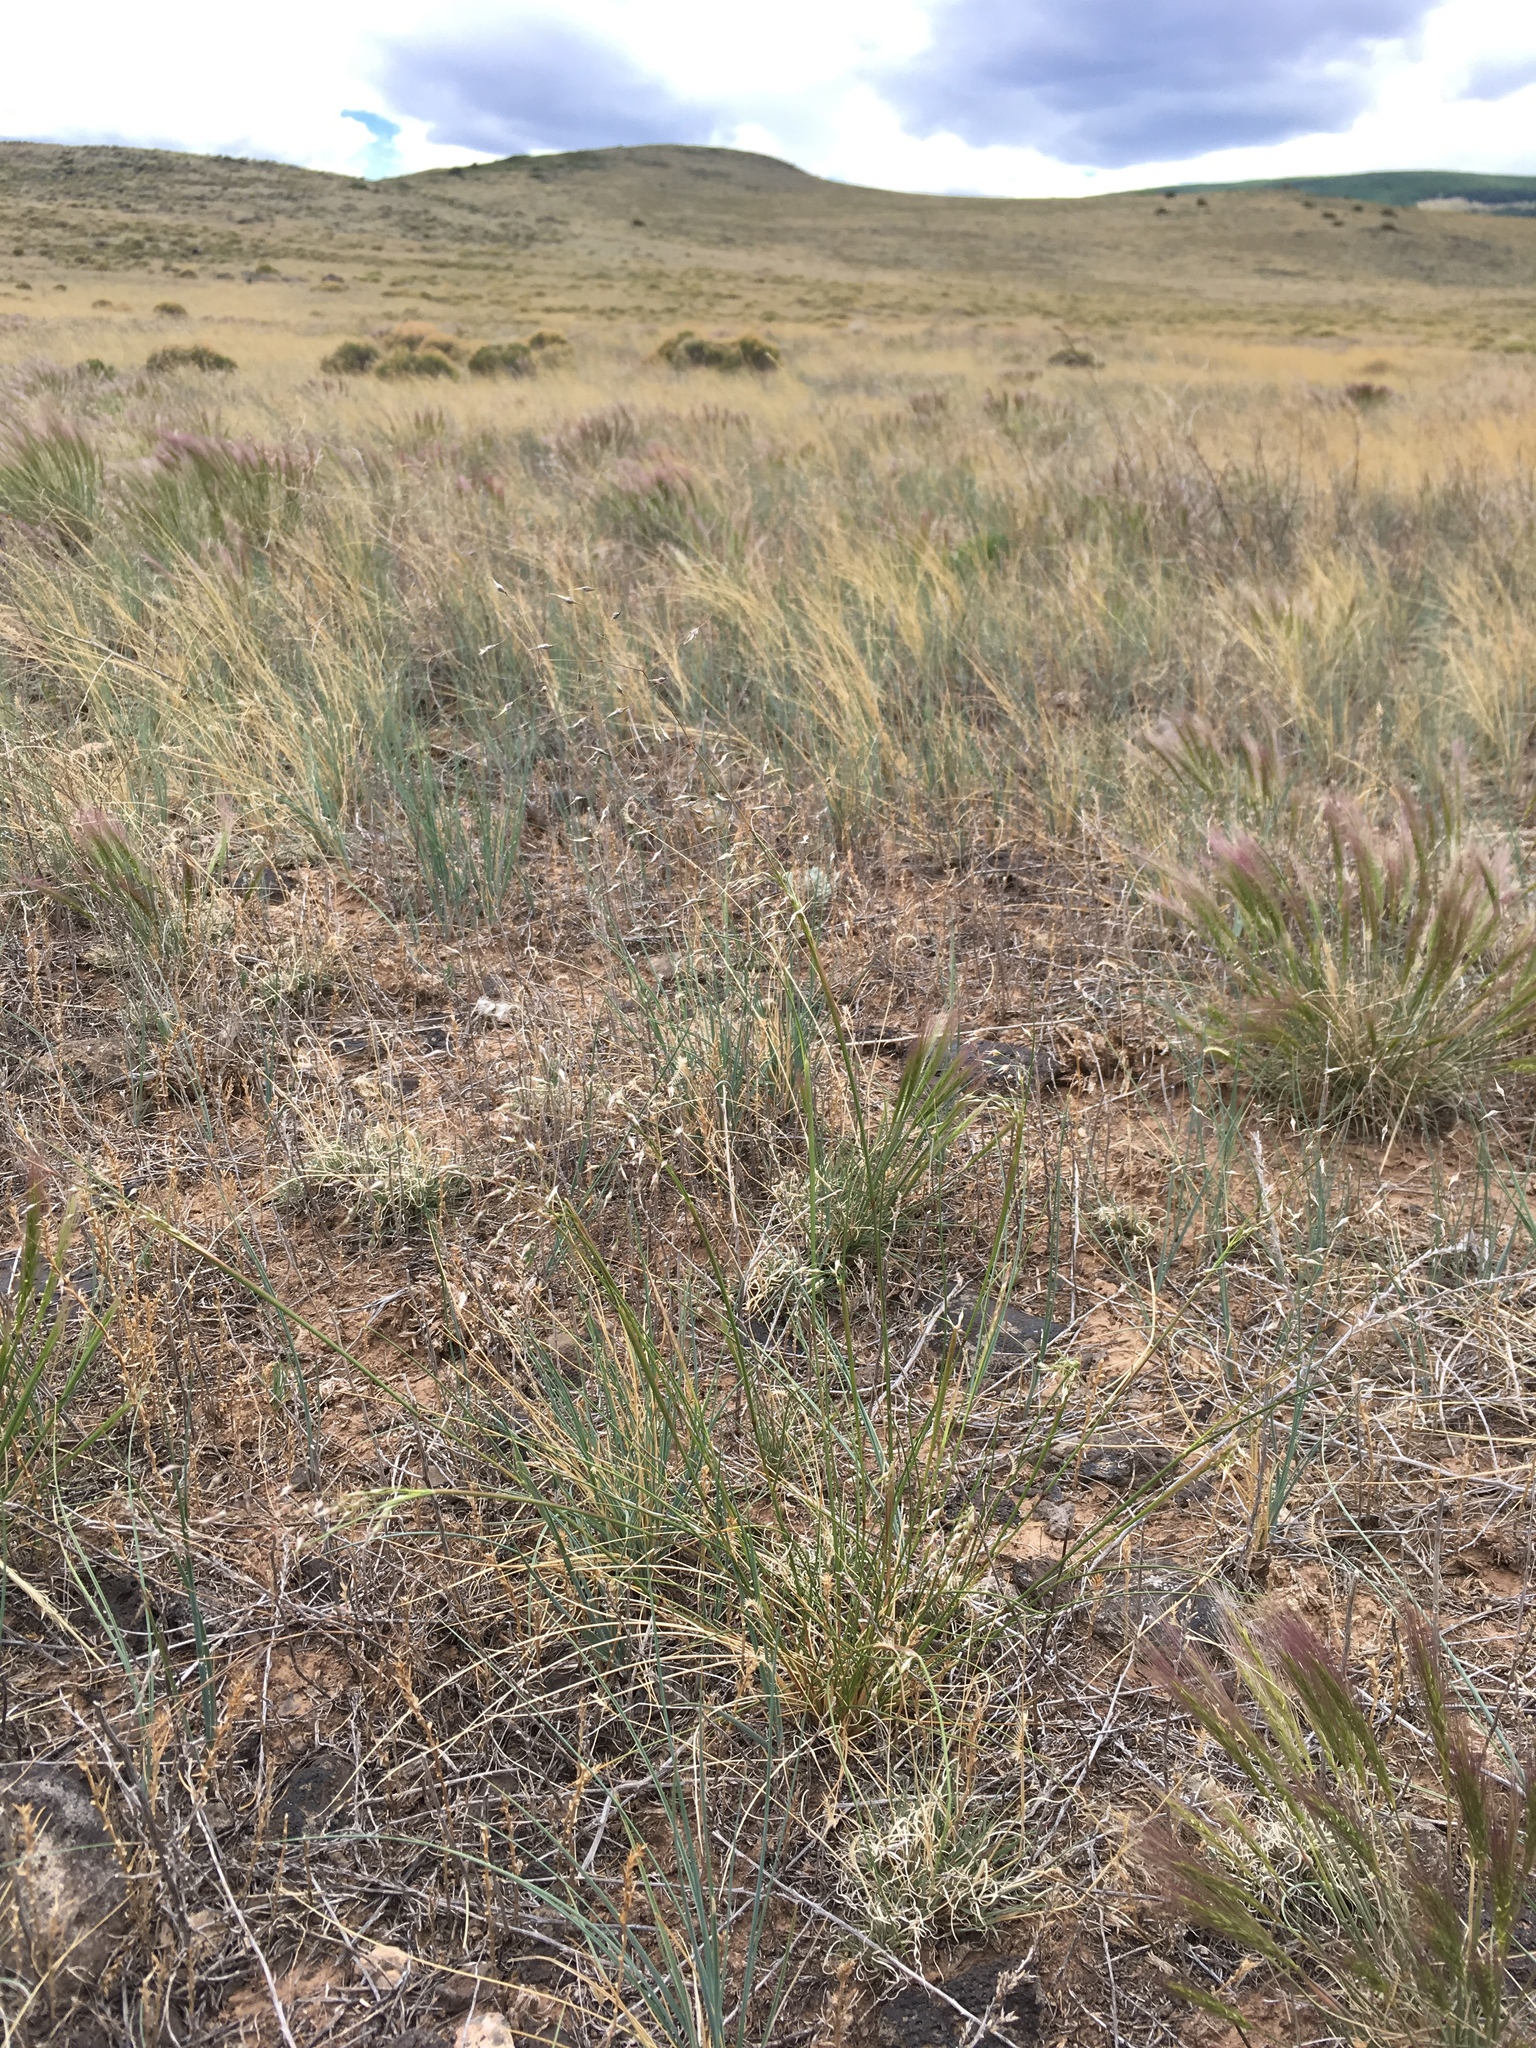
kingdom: Plantae
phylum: Tracheophyta
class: Liliopsida
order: Poales
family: Poaceae
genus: Eriocoma
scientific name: Eriocoma hymenoides
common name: Indian mountain ricegrass
